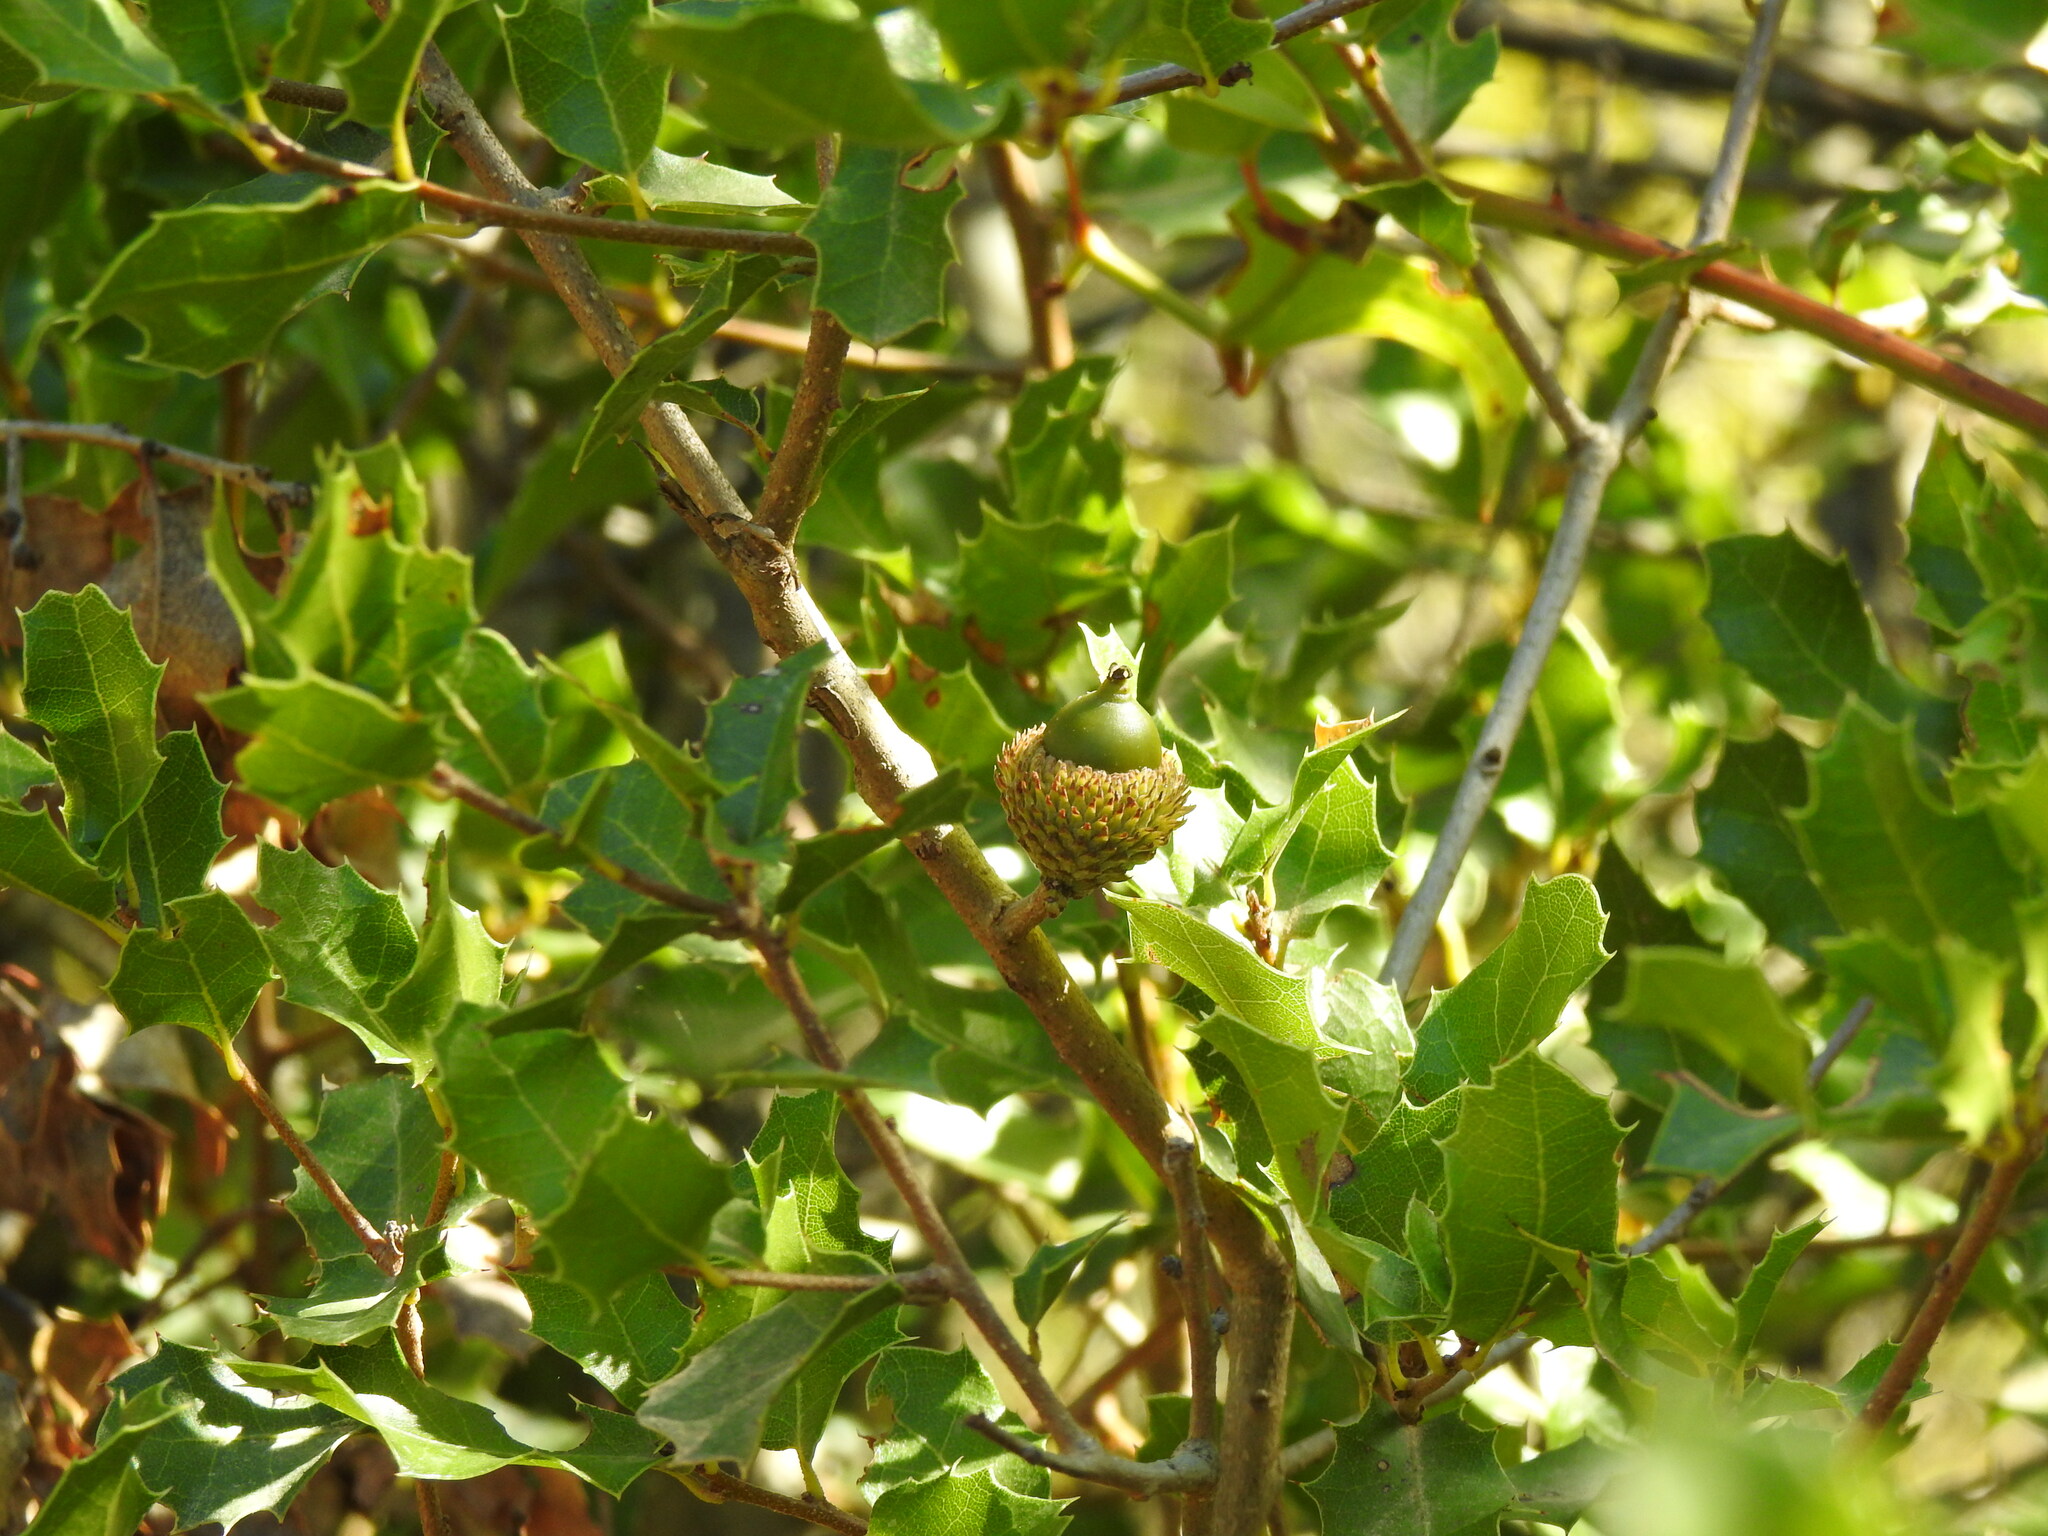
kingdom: Plantae
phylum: Tracheophyta
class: Magnoliopsida
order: Fagales
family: Fagaceae
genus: Quercus
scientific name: Quercus coccifera
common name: Kermes oak
